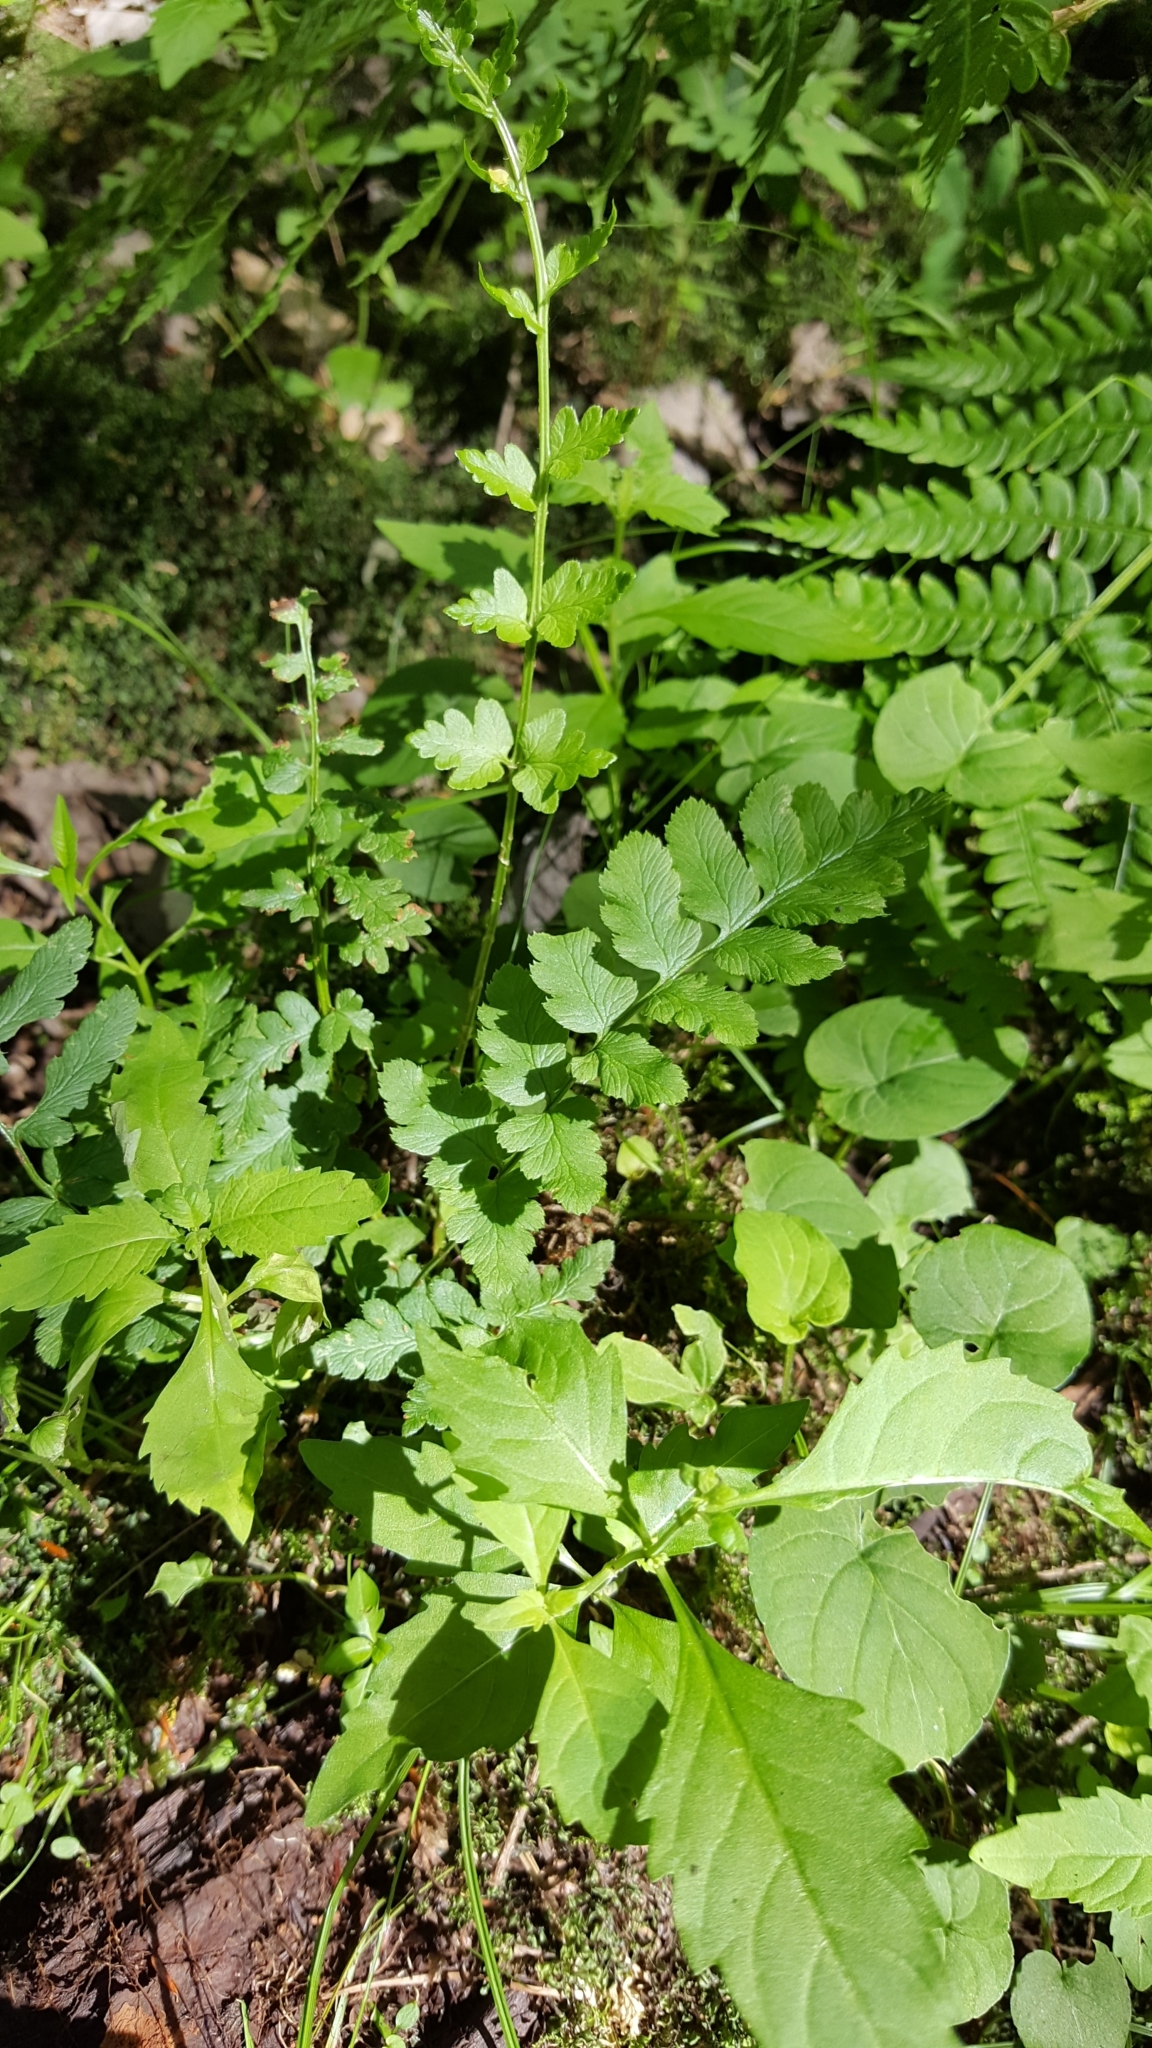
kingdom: Plantae
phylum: Tracheophyta
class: Polypodiopsida
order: Polypodiales
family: Dryopteridaceae
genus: Dryopteris
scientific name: Dryopteris cristata
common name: Crested wood fern
